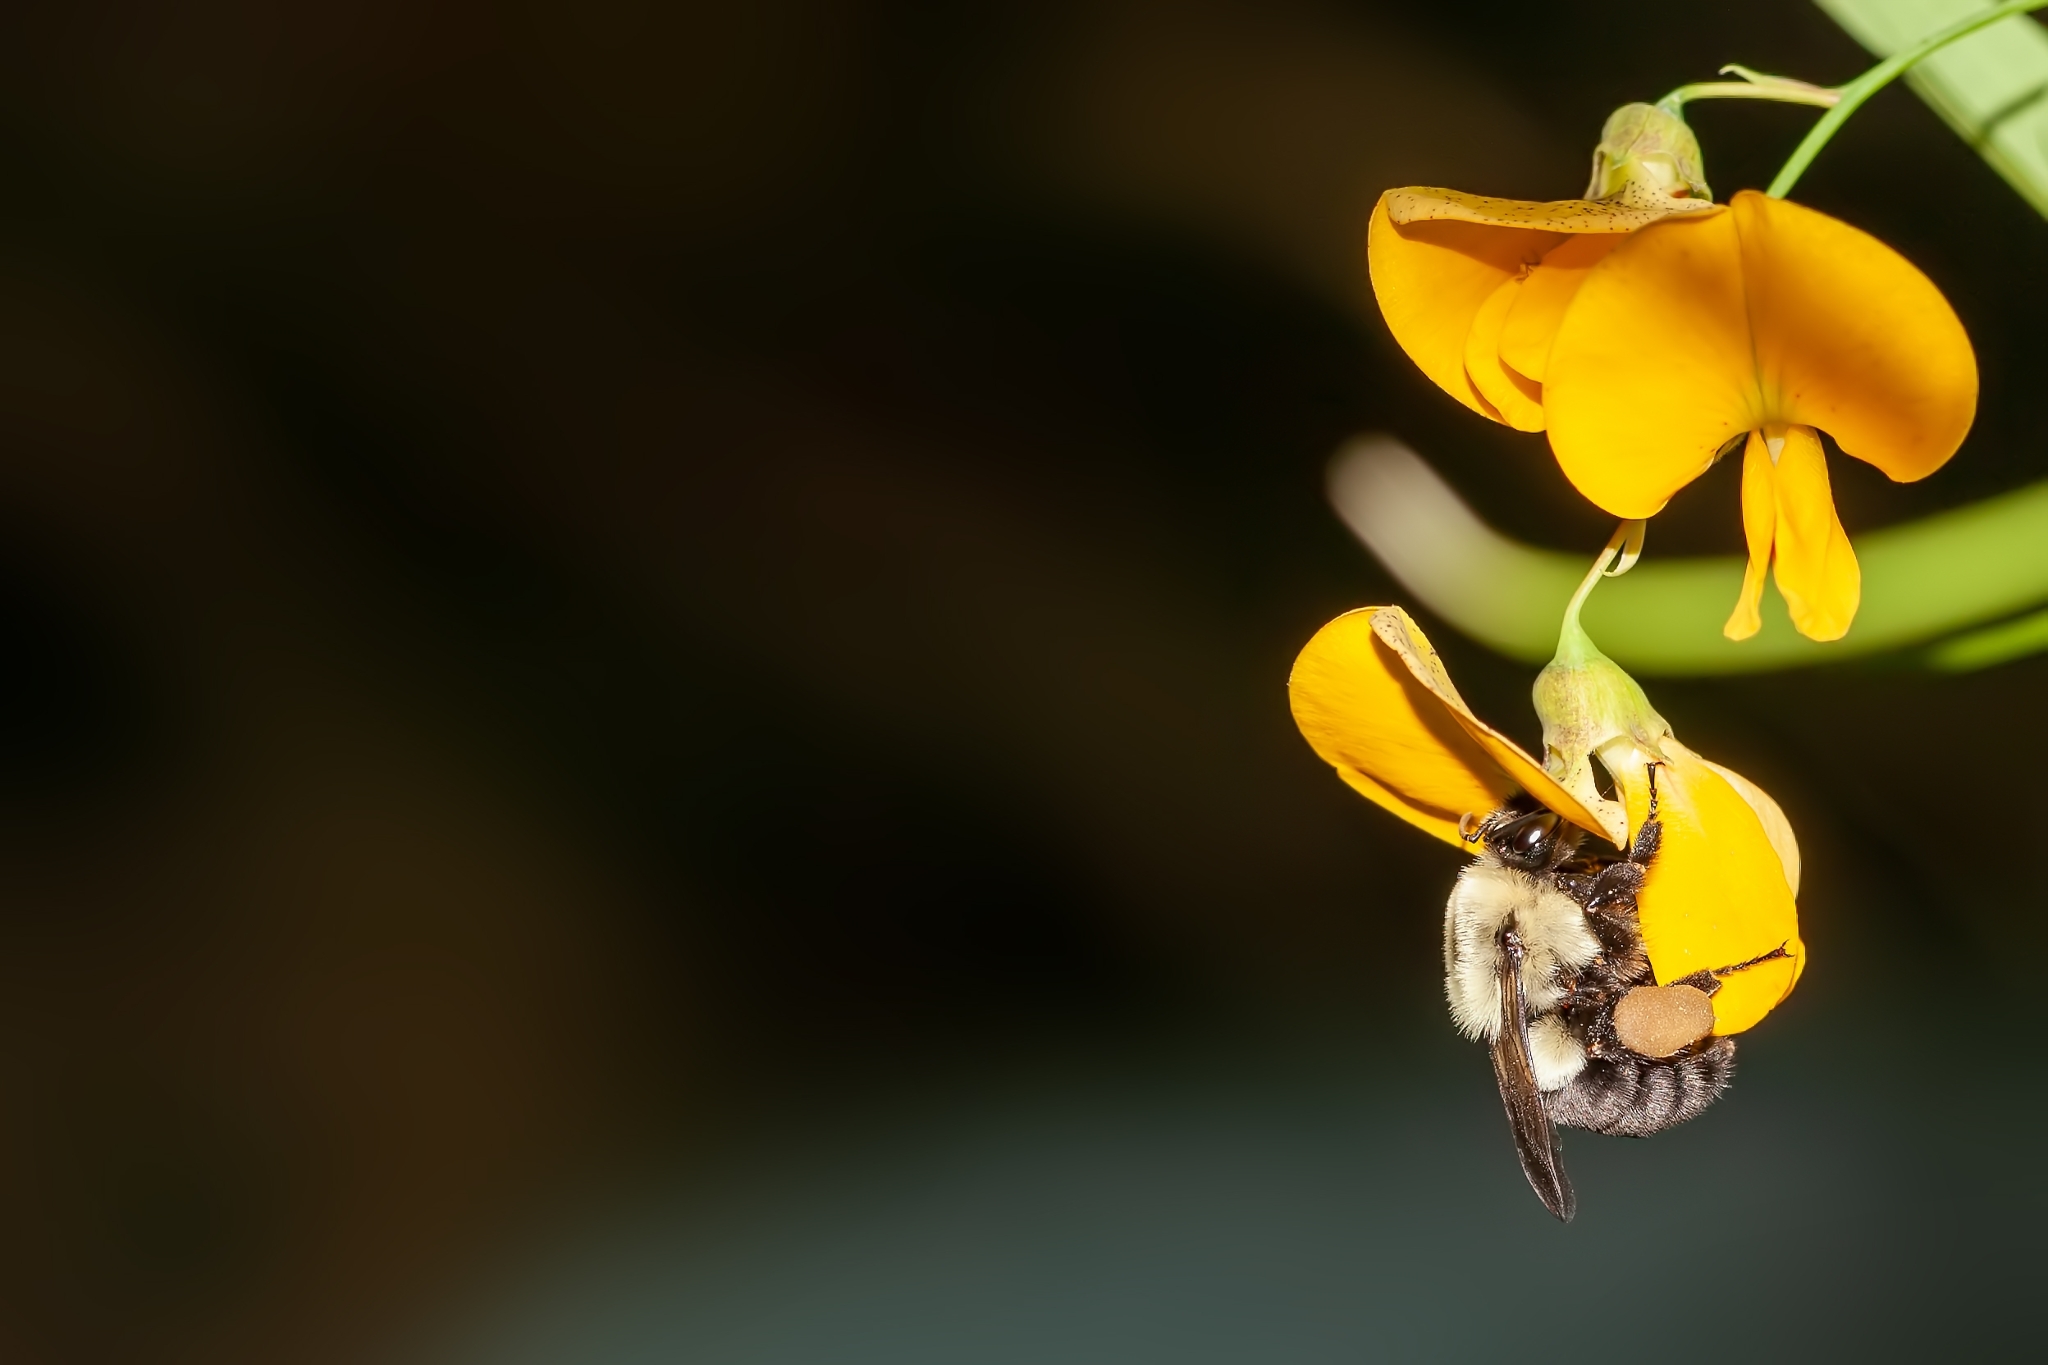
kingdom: Animalia
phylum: Arthropoda
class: Insecta
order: Hymenoptera
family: Apidae
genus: Bombus
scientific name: Bombus impatiens
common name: Common eastern bumble bee
